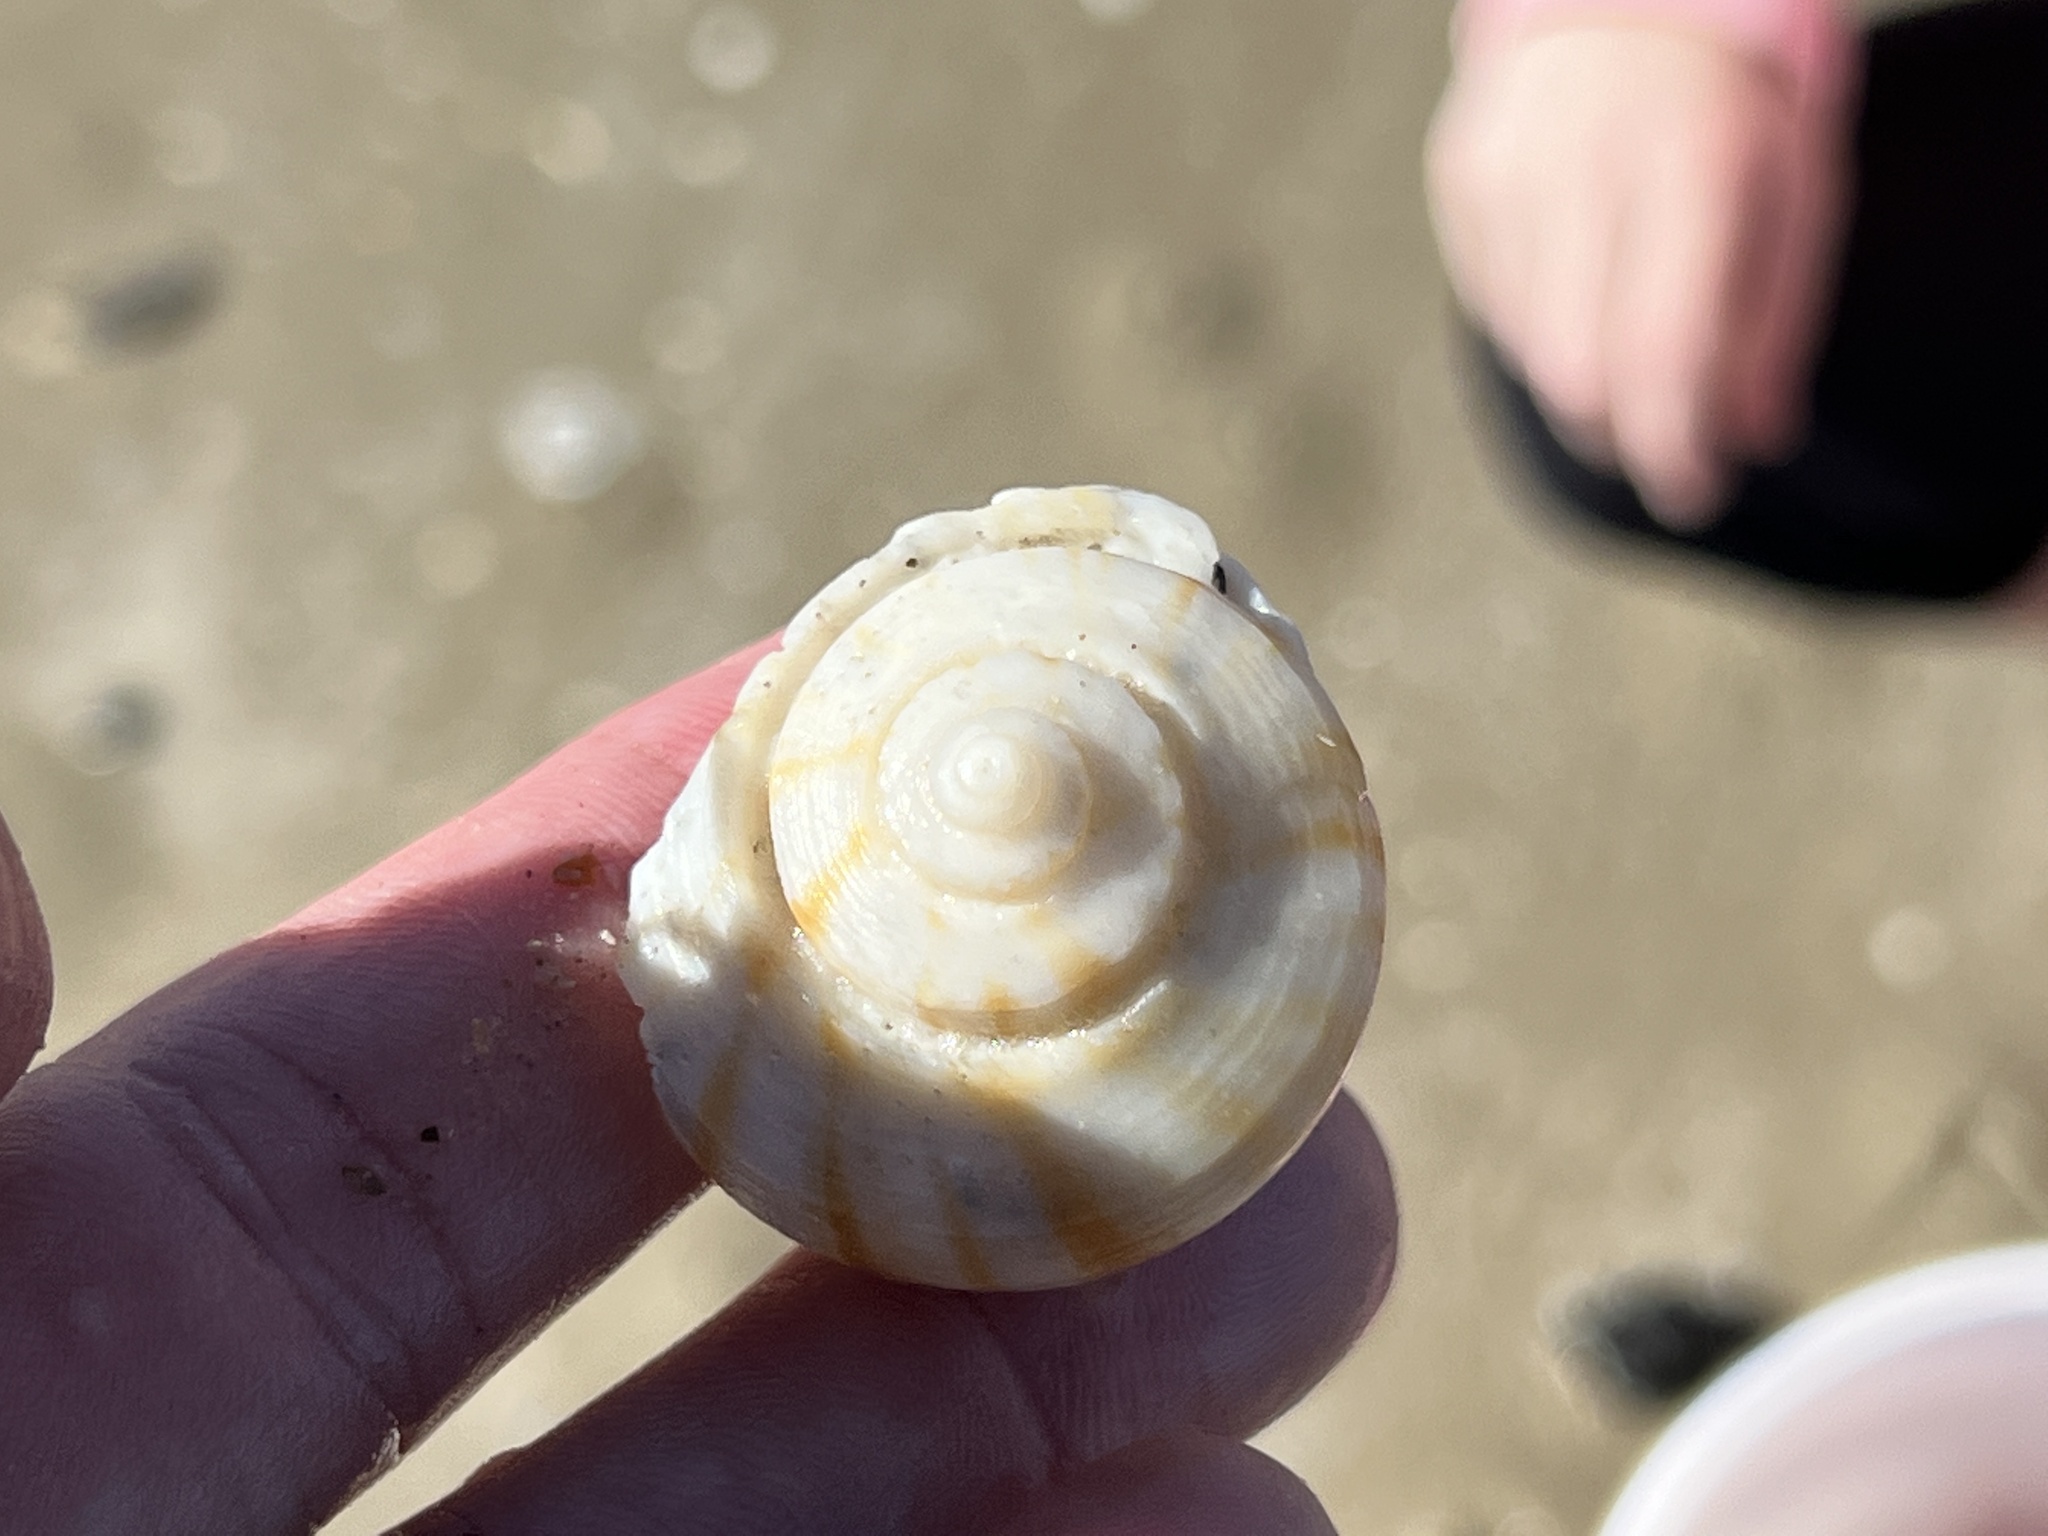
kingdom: Animalia
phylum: Mollusca
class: Gastropoda
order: Neogastropoda
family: Busyconidae
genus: Fulguropsis
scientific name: Fulguropsis spirata
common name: Pear whelk
